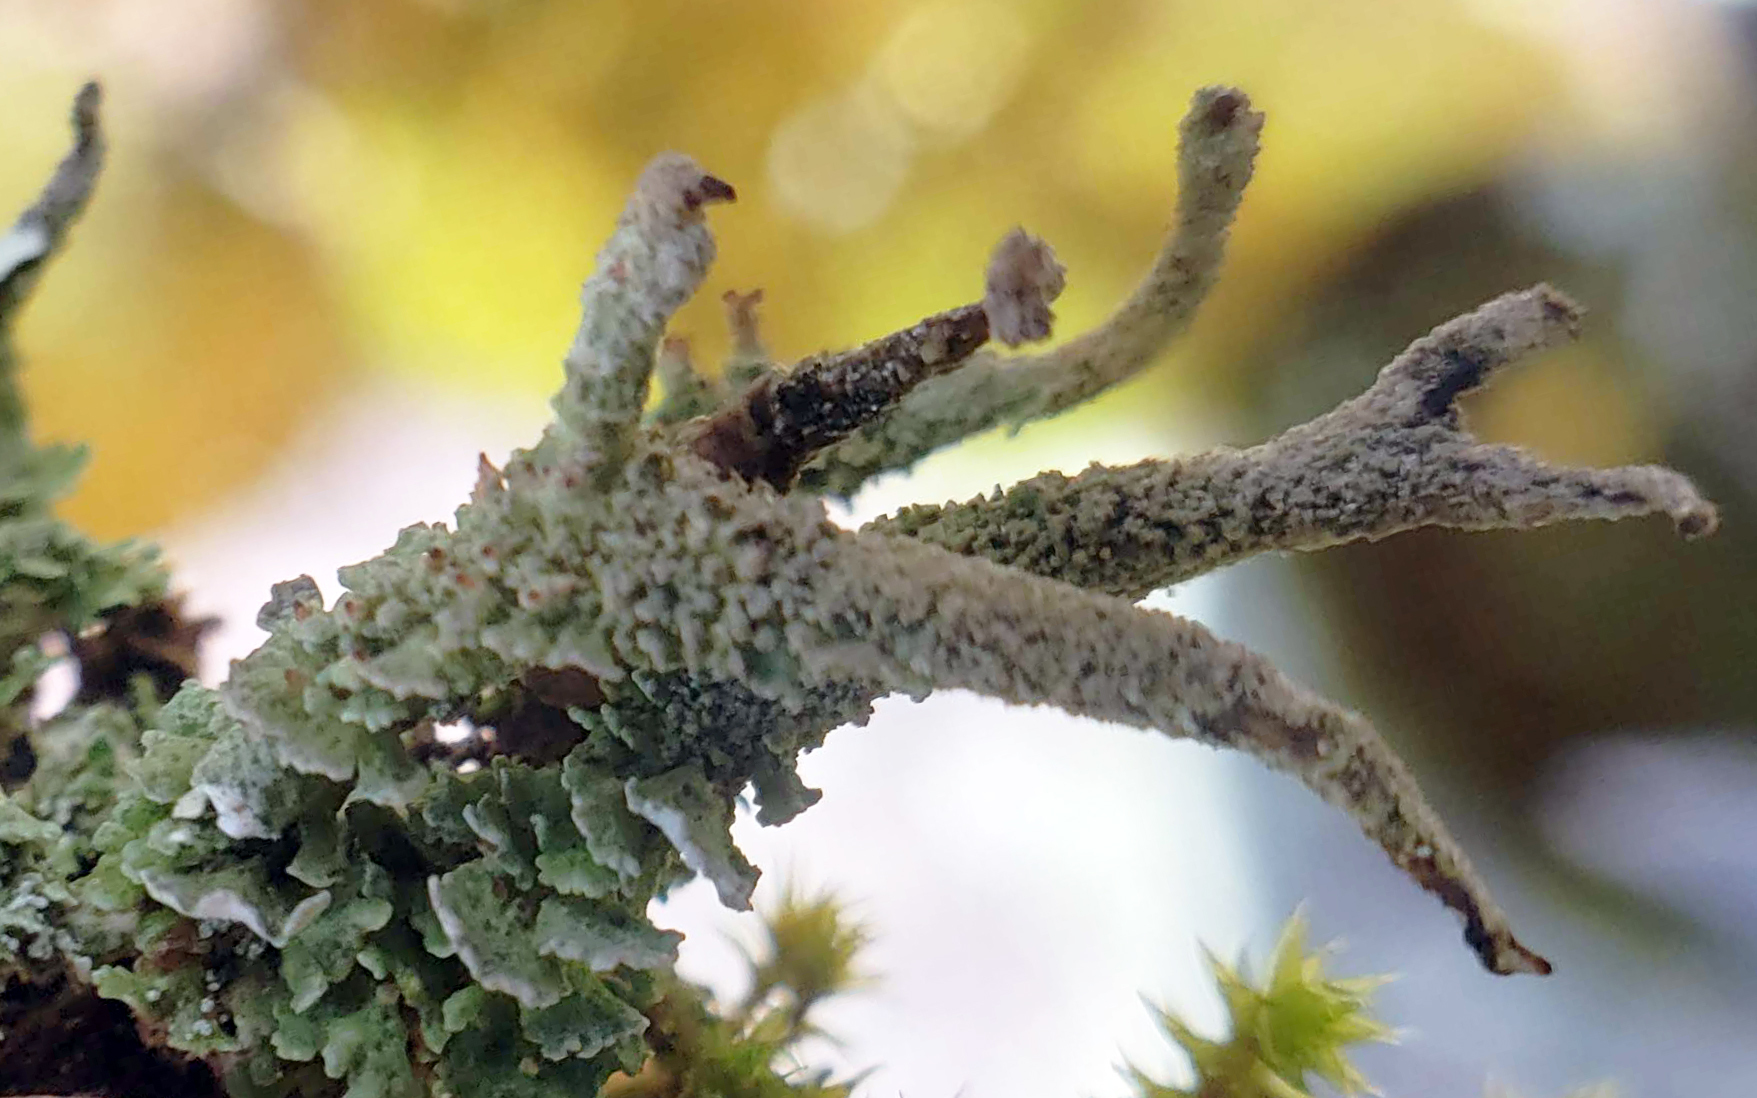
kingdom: Fungi
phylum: Ascomycota
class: Lecanoromycetes
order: Lecanorales
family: Cladoniaceae
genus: Cladonia
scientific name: Cladonia squamosa
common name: Dragon horn
